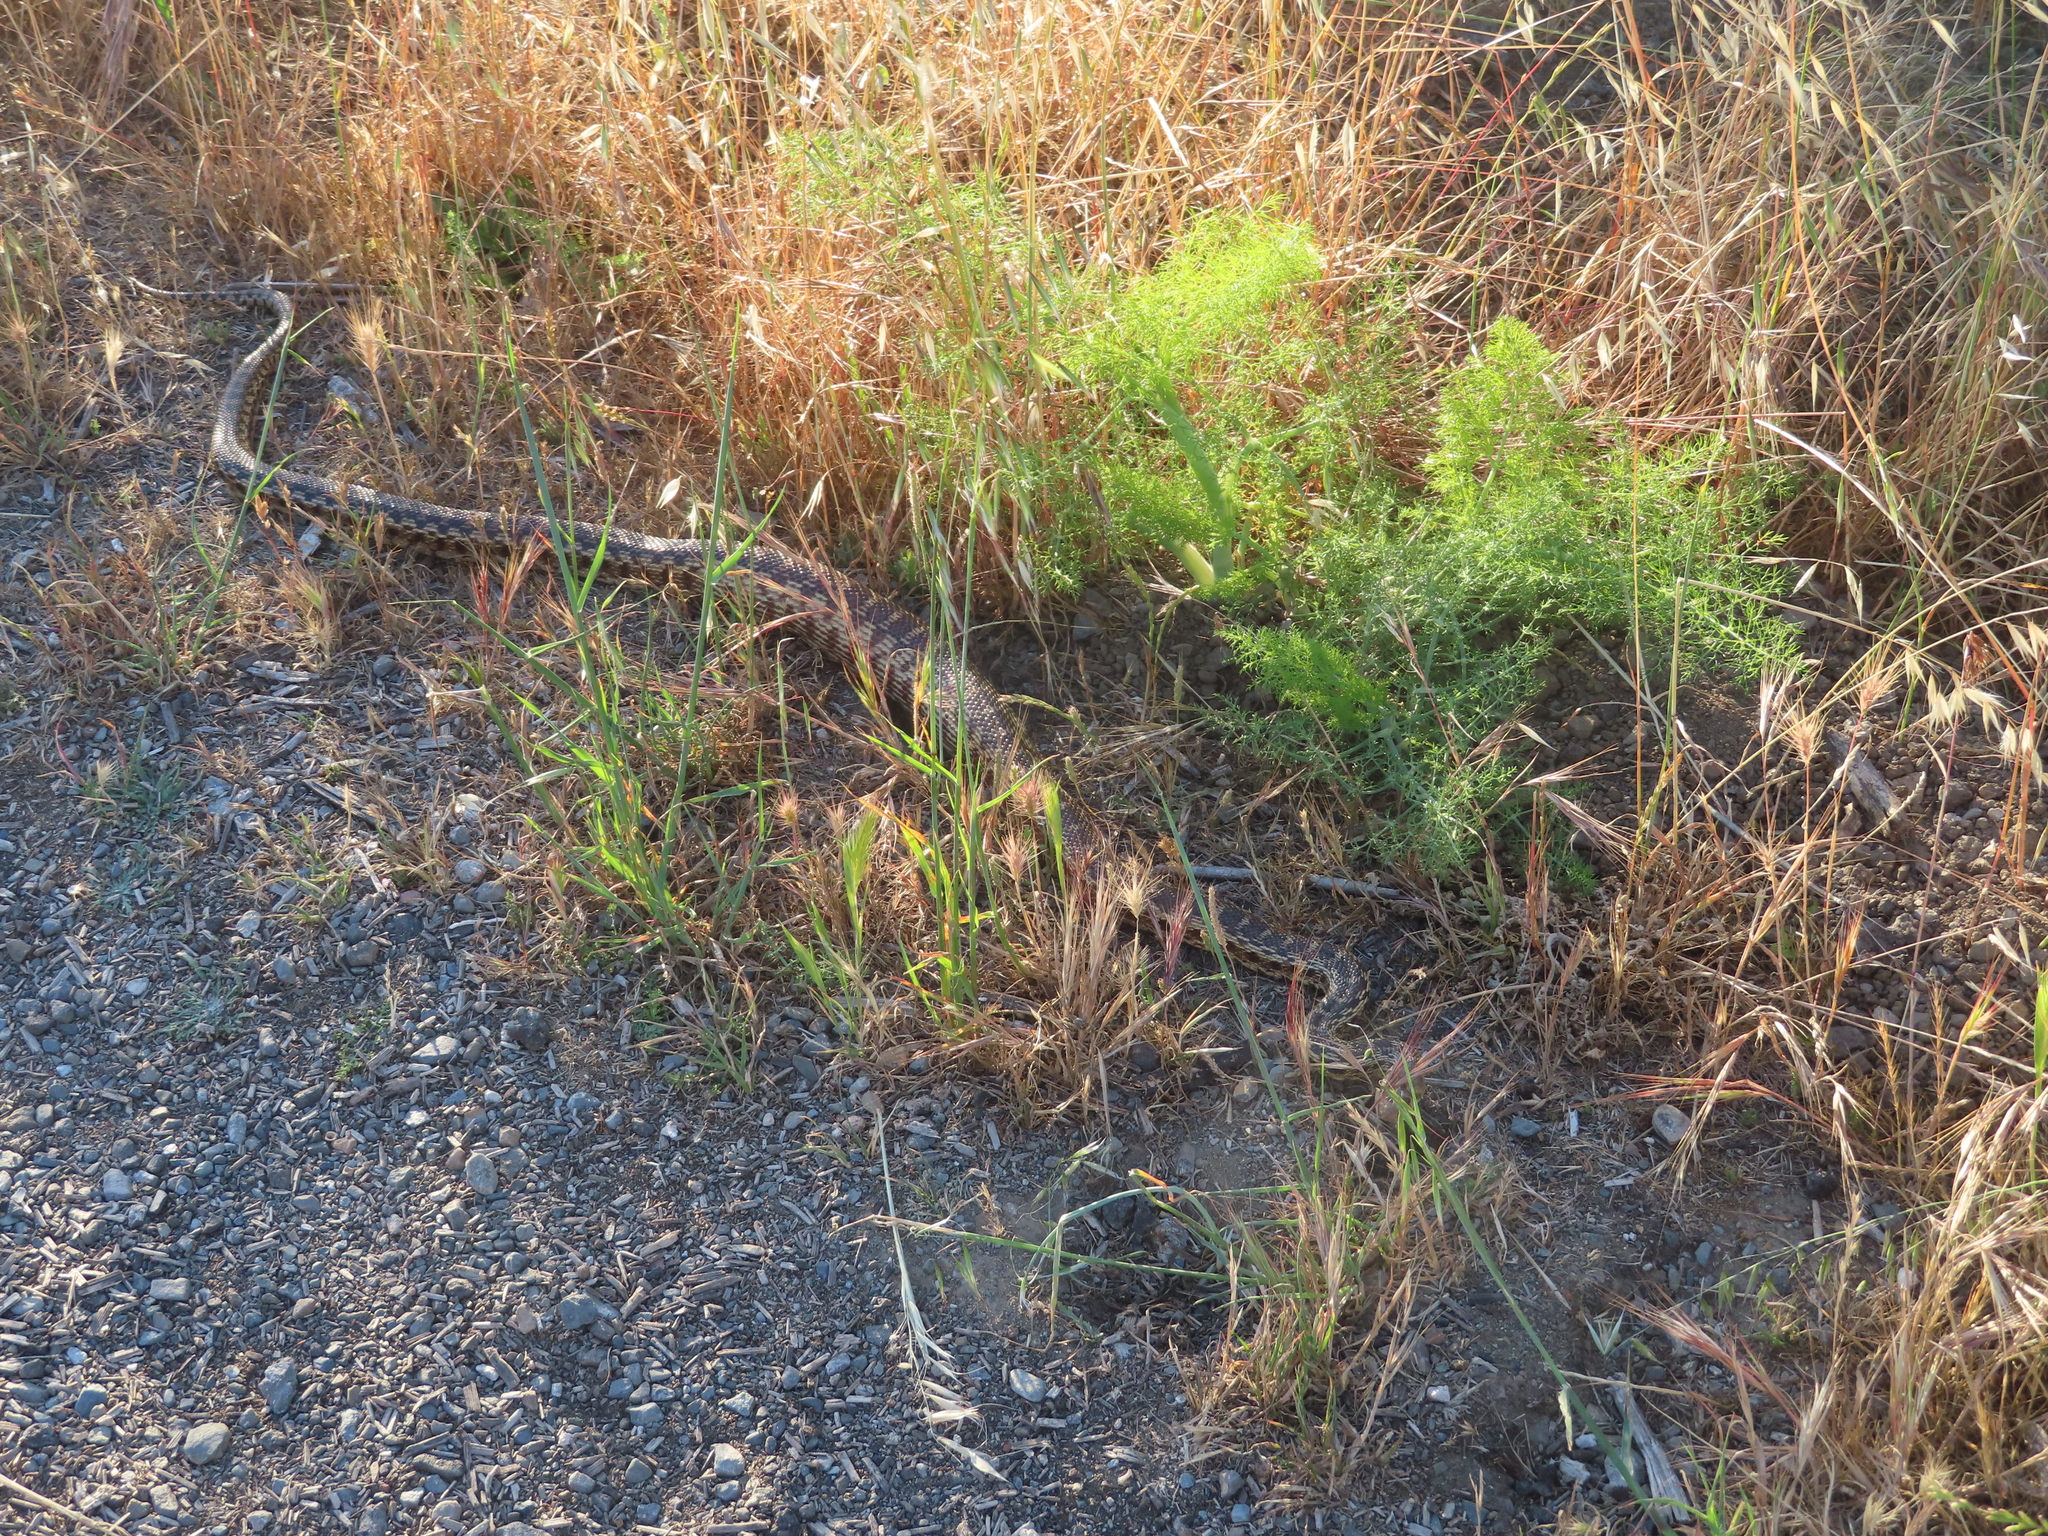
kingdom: Animalia
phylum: Chordata
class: Squamata
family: Colubridae
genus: Pituophis
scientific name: Pituophis catenifer
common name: Gopher snake
